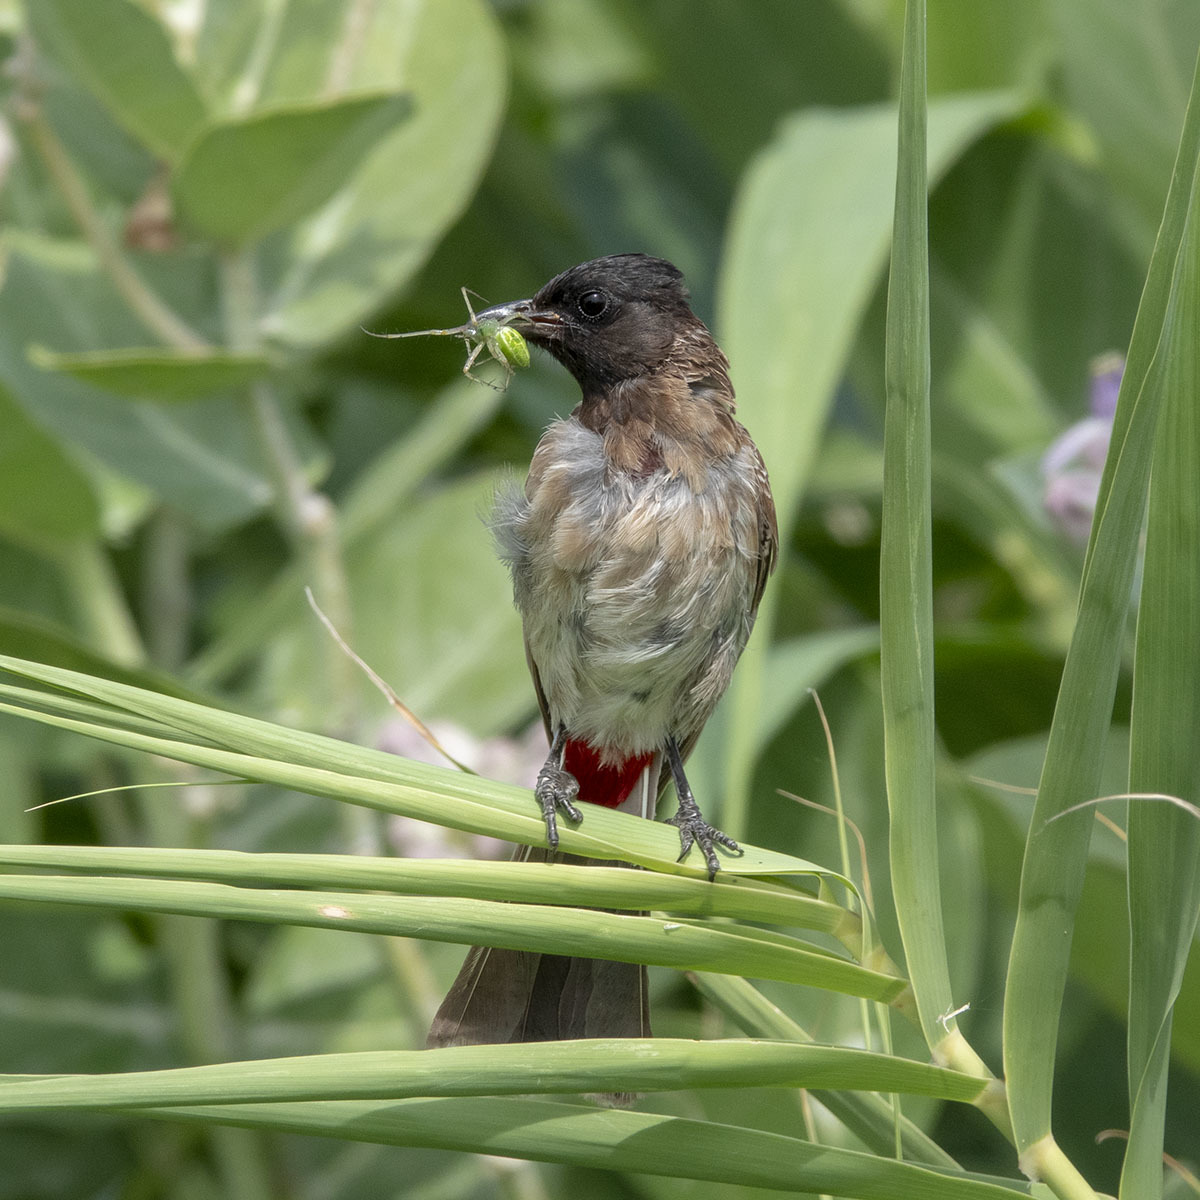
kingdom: Animalia
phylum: Chordata
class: Aves
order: Passeriformes
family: Pycnonotidae
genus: Pycnonotus
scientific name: Pycnonotus cafer
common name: Red-vented bulbul
